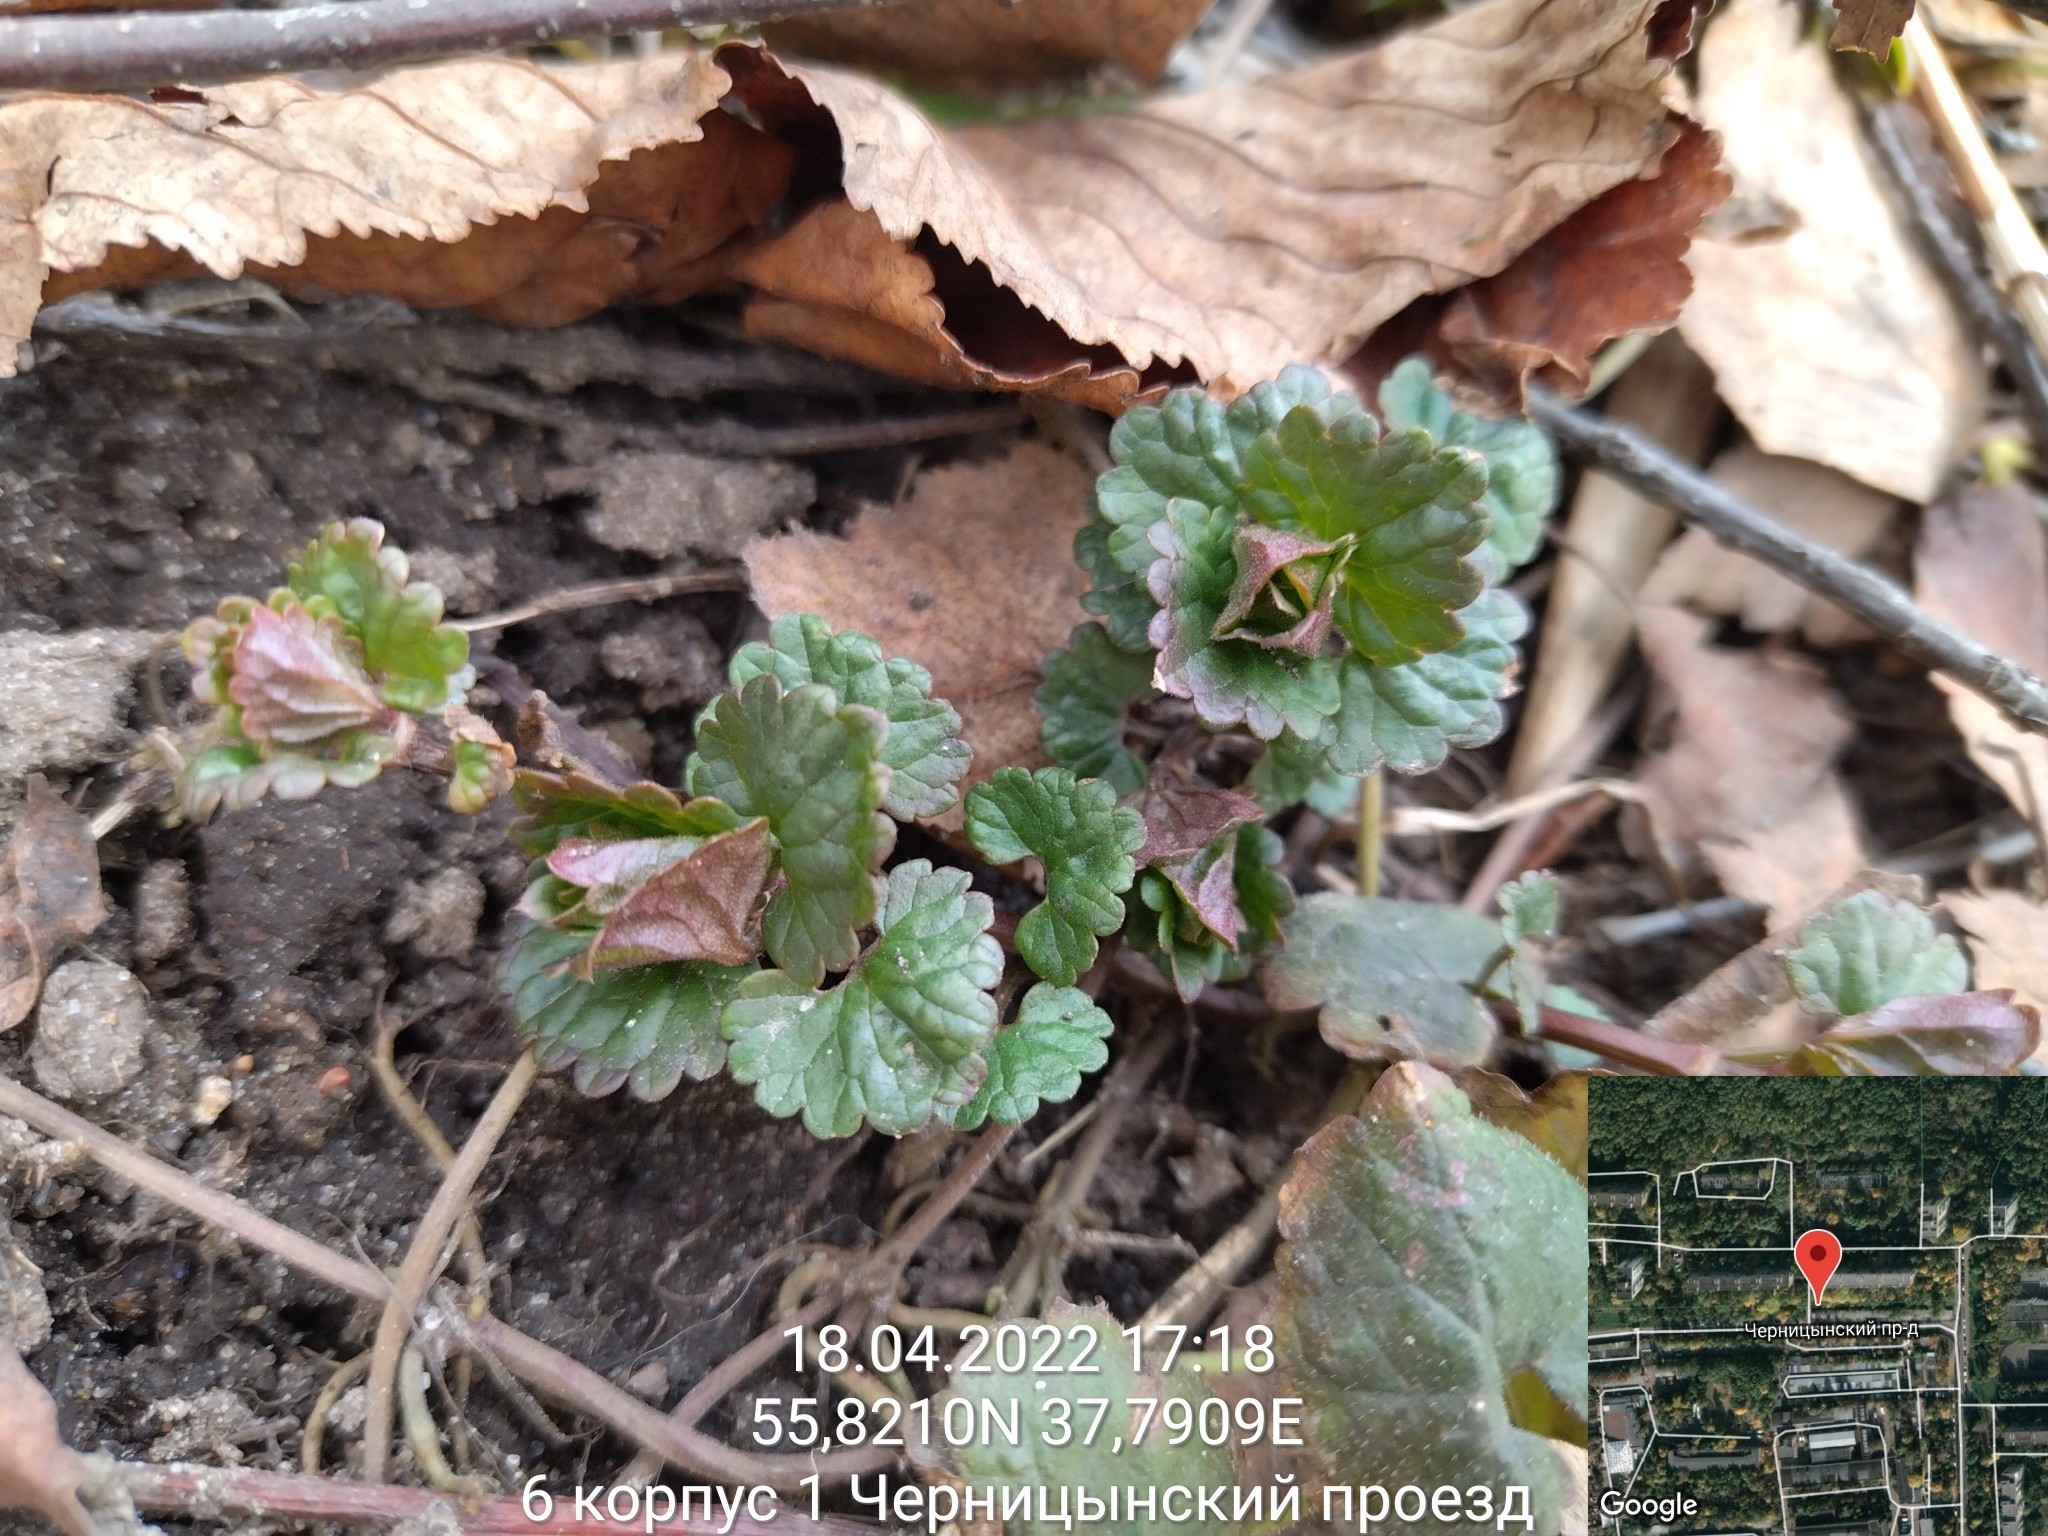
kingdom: Plantae
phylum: Tracheophyta
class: Magnoliopsida
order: Lamiales
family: Lamiaceae
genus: Glechoma
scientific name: Glechoma hederacea
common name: Ground ivy
